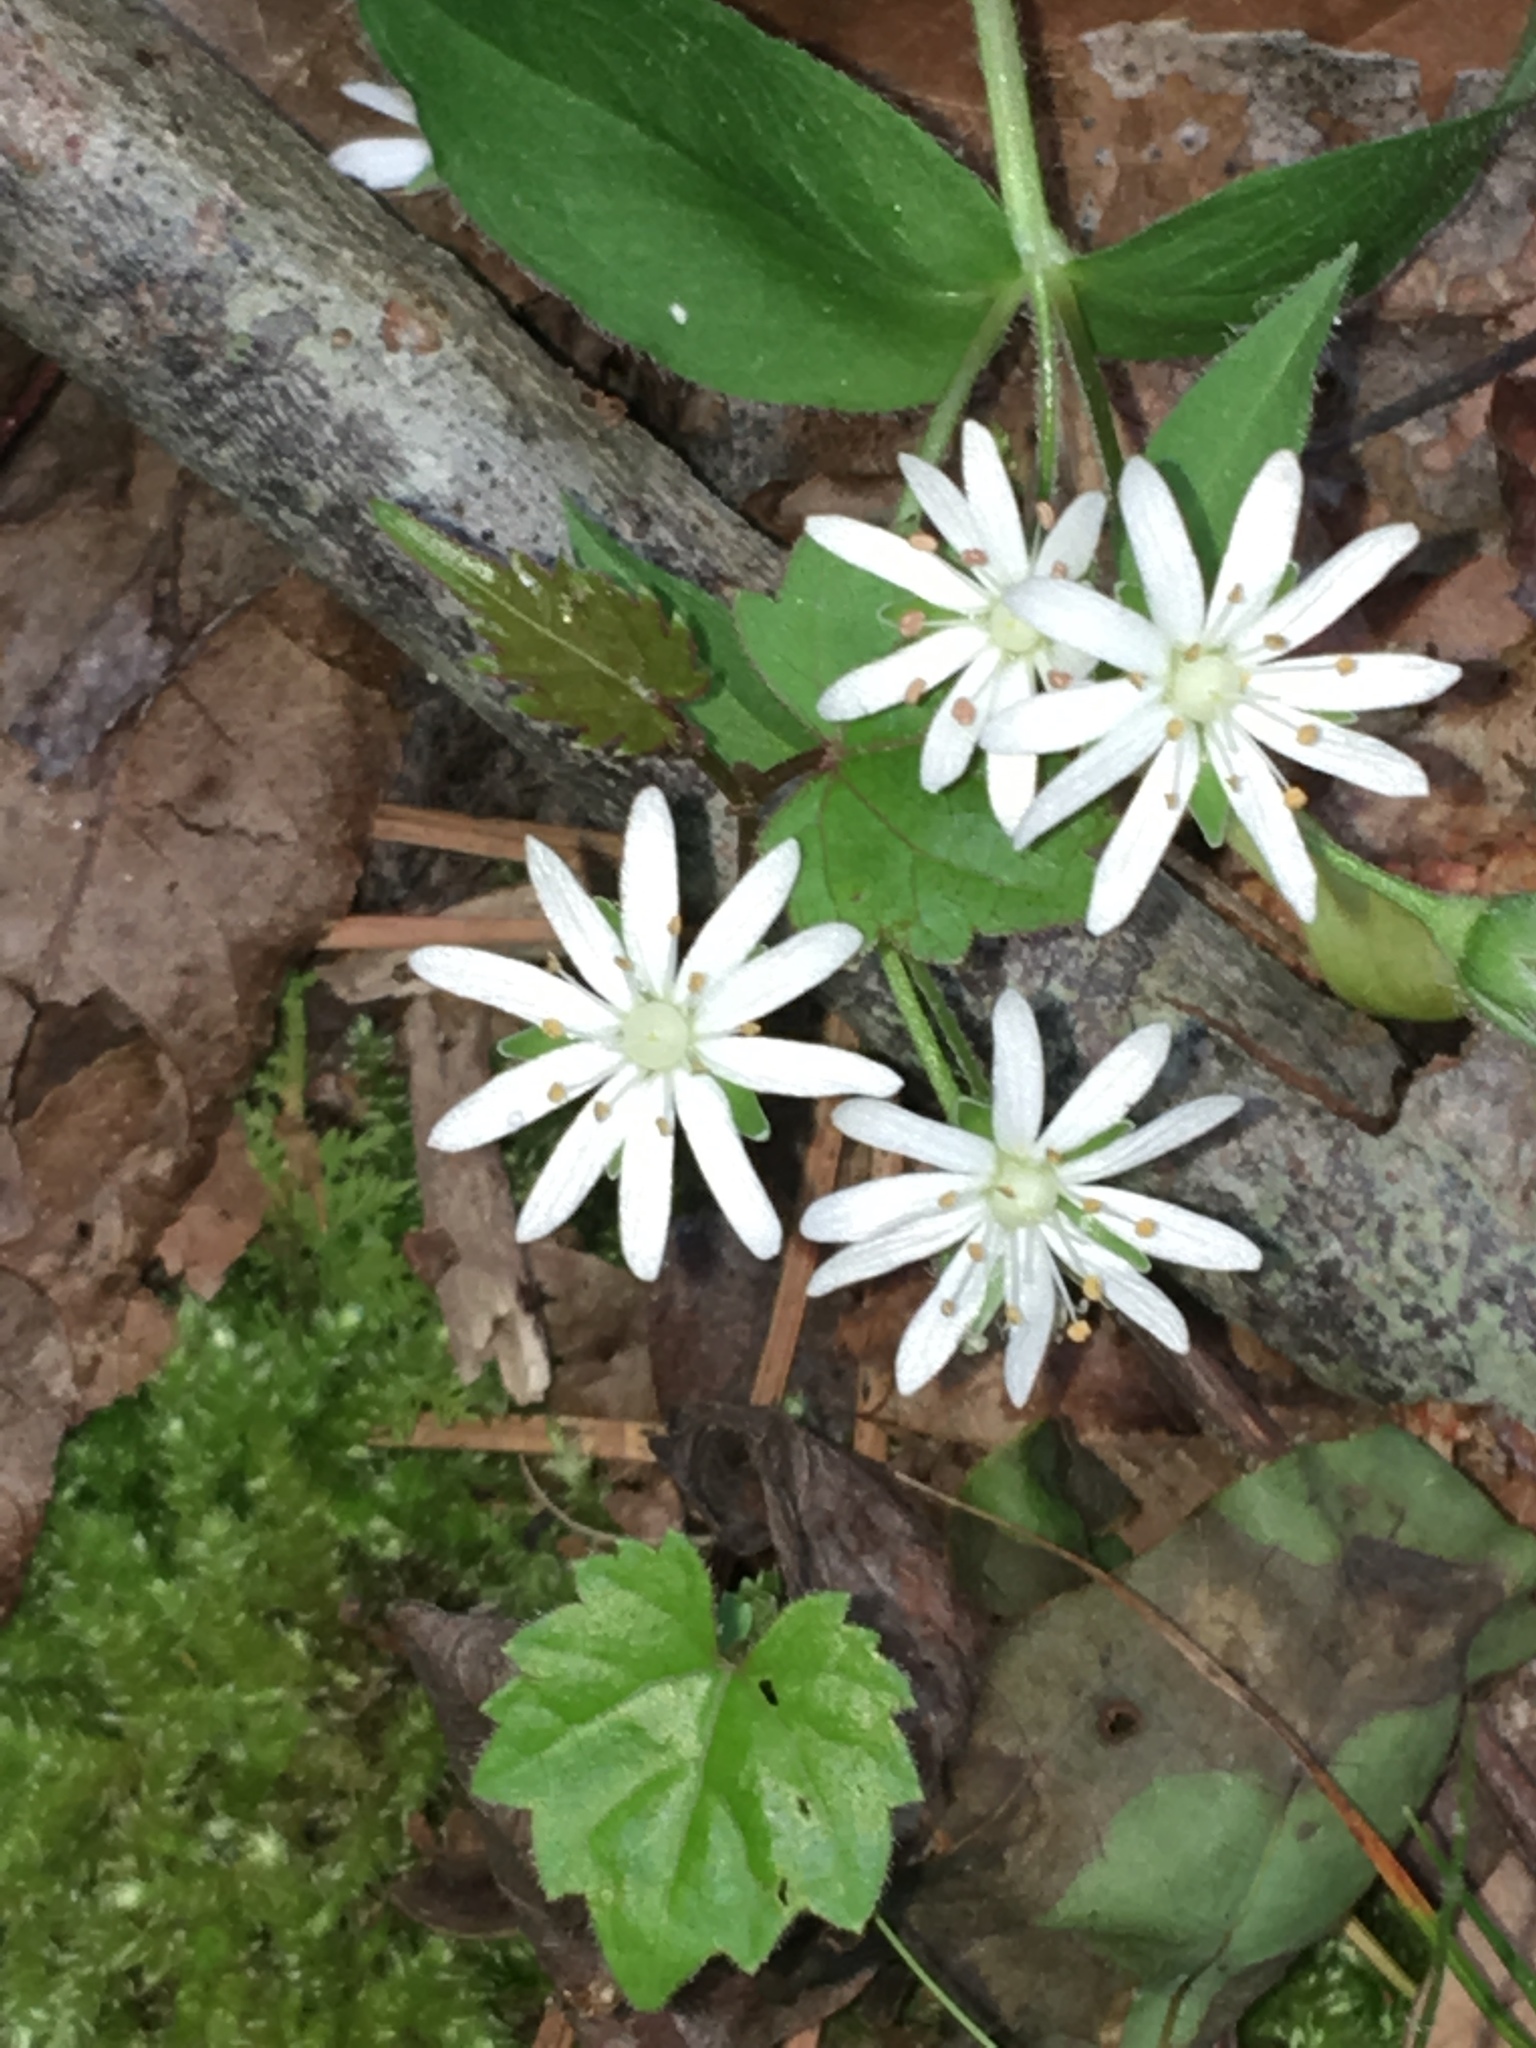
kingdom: Plantae
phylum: Tracheophyta
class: Magnoliopsida
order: Caryophyllales
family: Caryophyllaceae
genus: Stellaria
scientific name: Stellaria pubera
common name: Star chickweed
